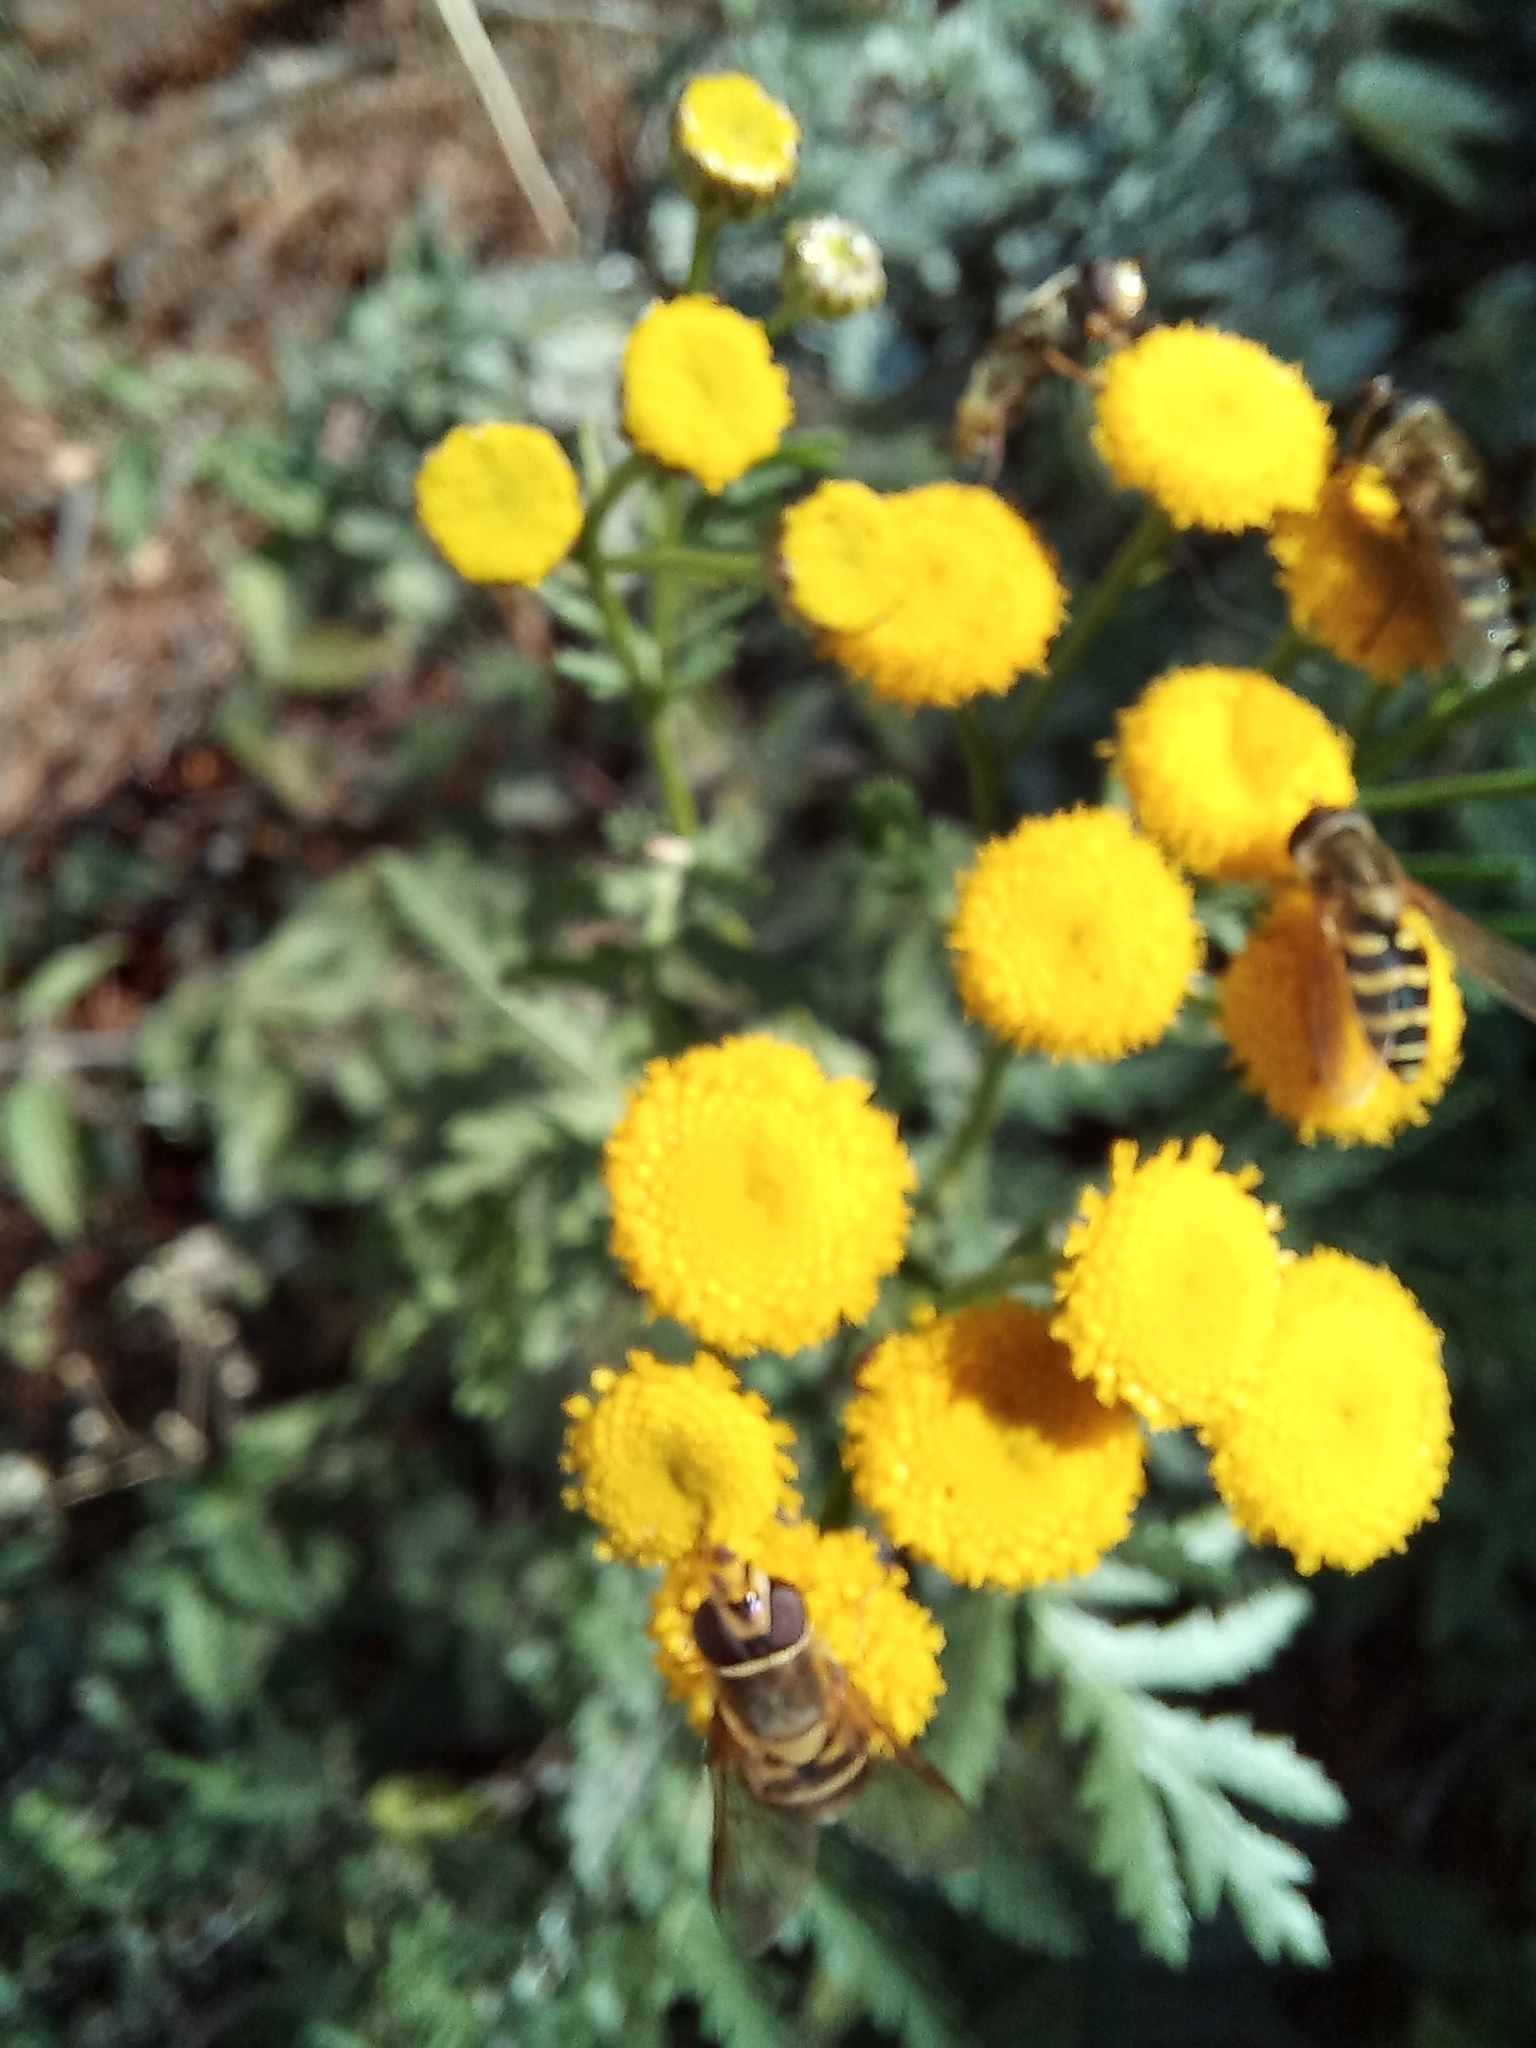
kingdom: Plantae
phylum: Tracheophyta
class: Magnoliopsida
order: Asterales
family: Asteraceae
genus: Tanacetum
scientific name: Tanacetum vulgare
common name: Common tansy
